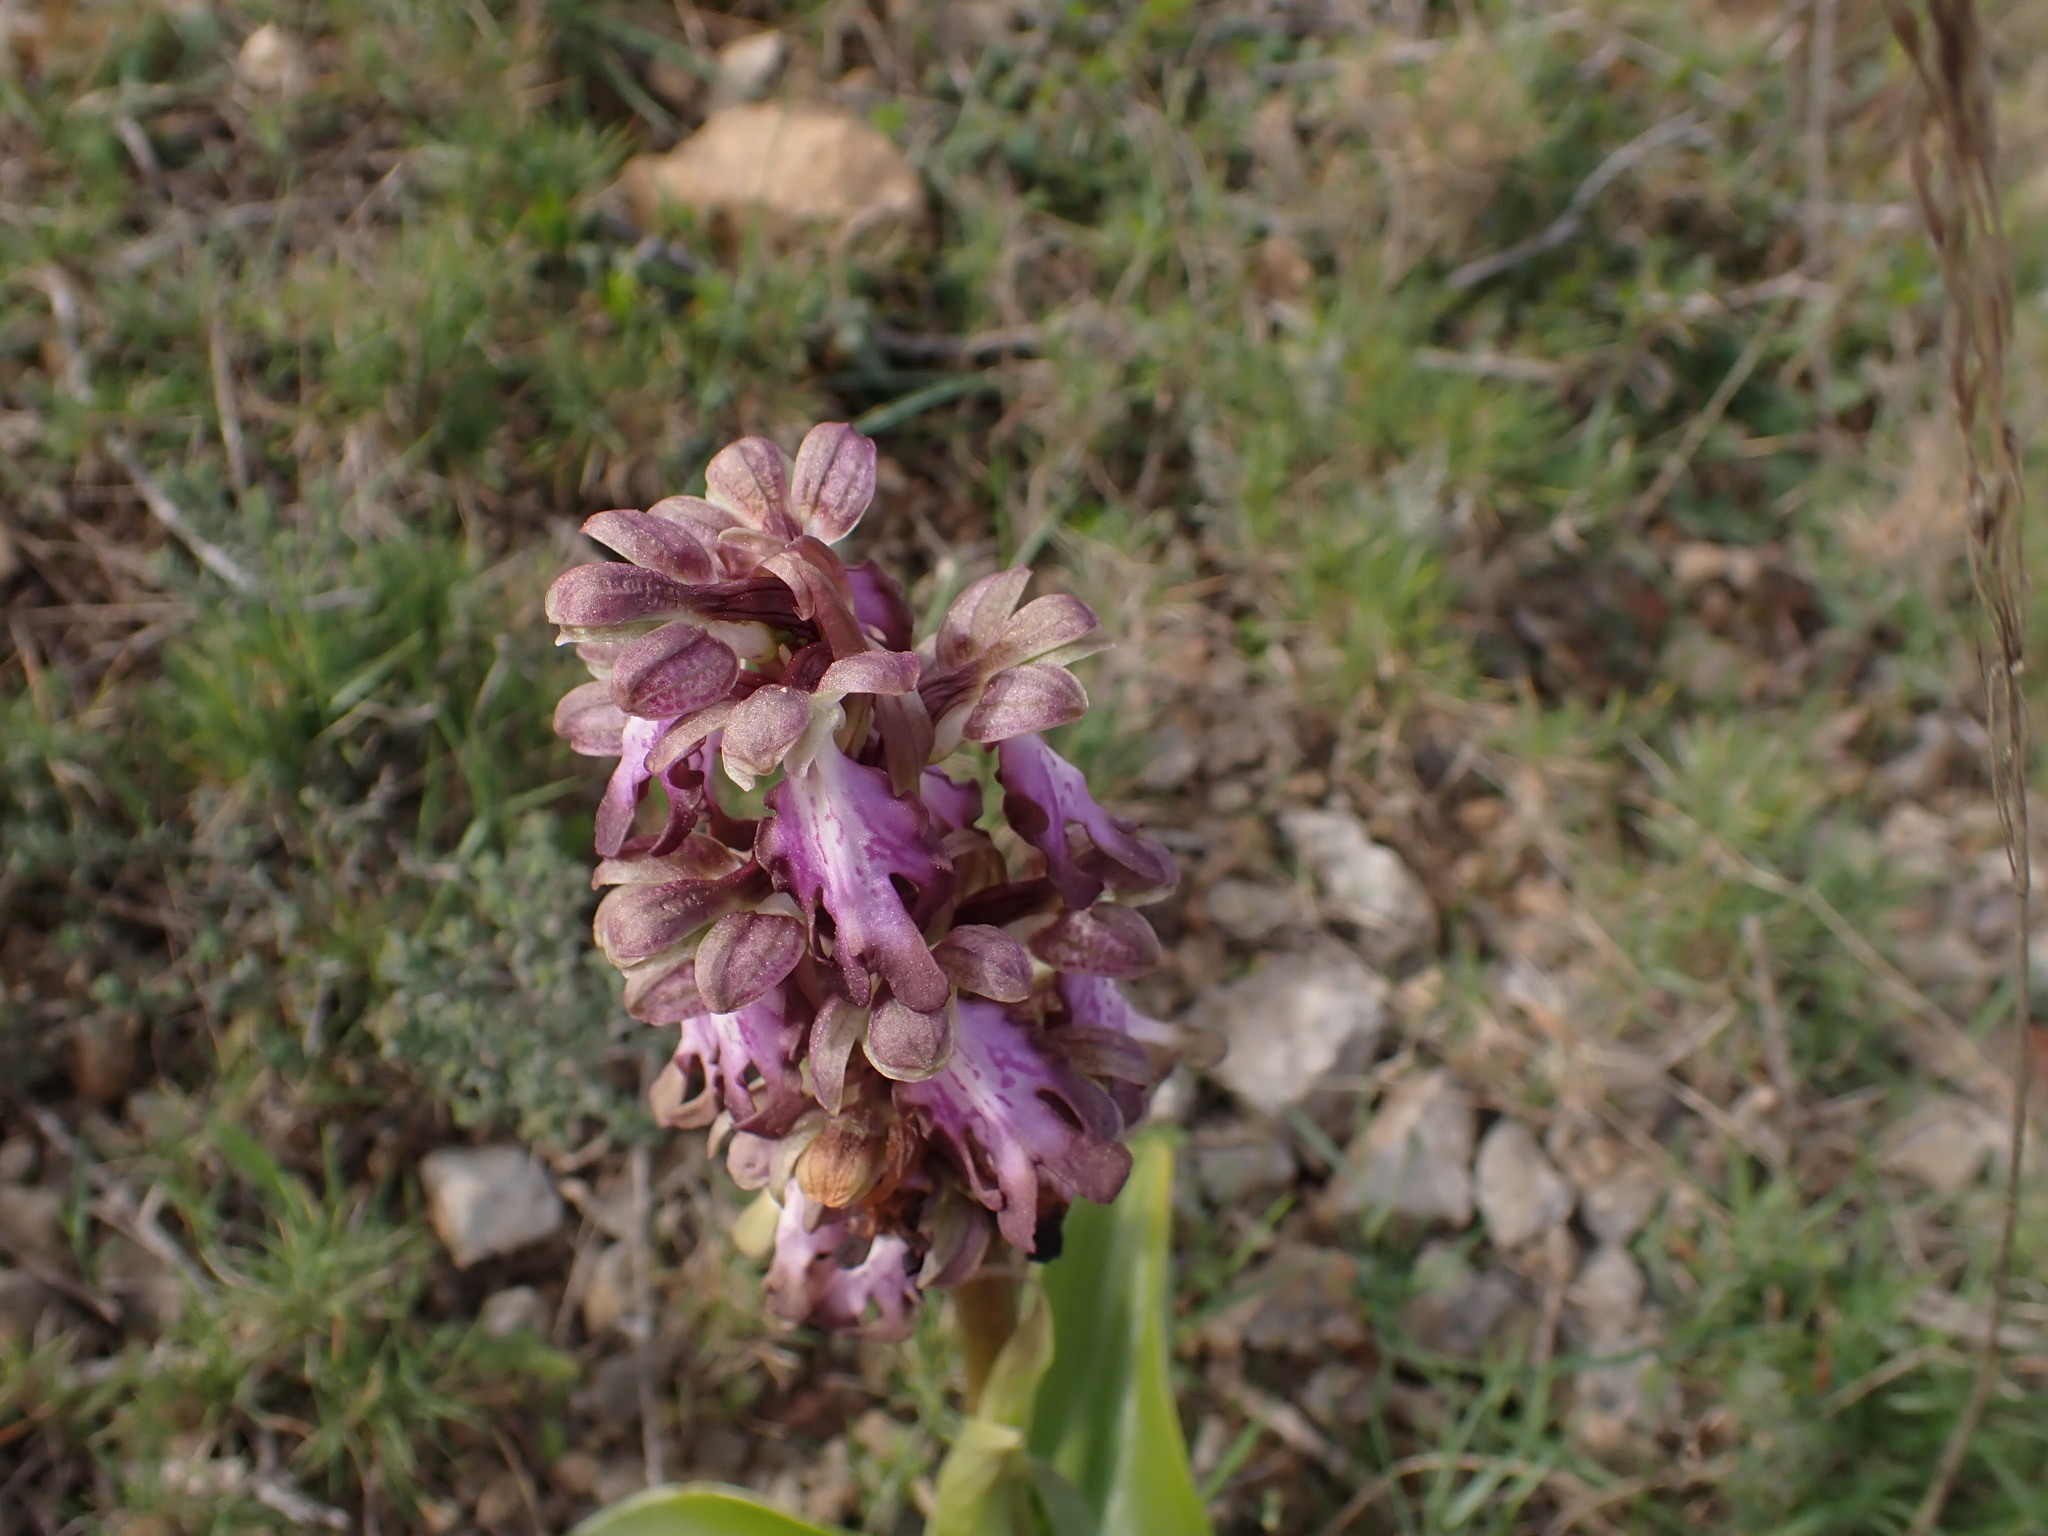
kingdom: Plantae
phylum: Tracheophyta
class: Liliopsida
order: Asparagales
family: Orchidaceae
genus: Himantoglossum
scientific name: Himantoglossum robertianum
